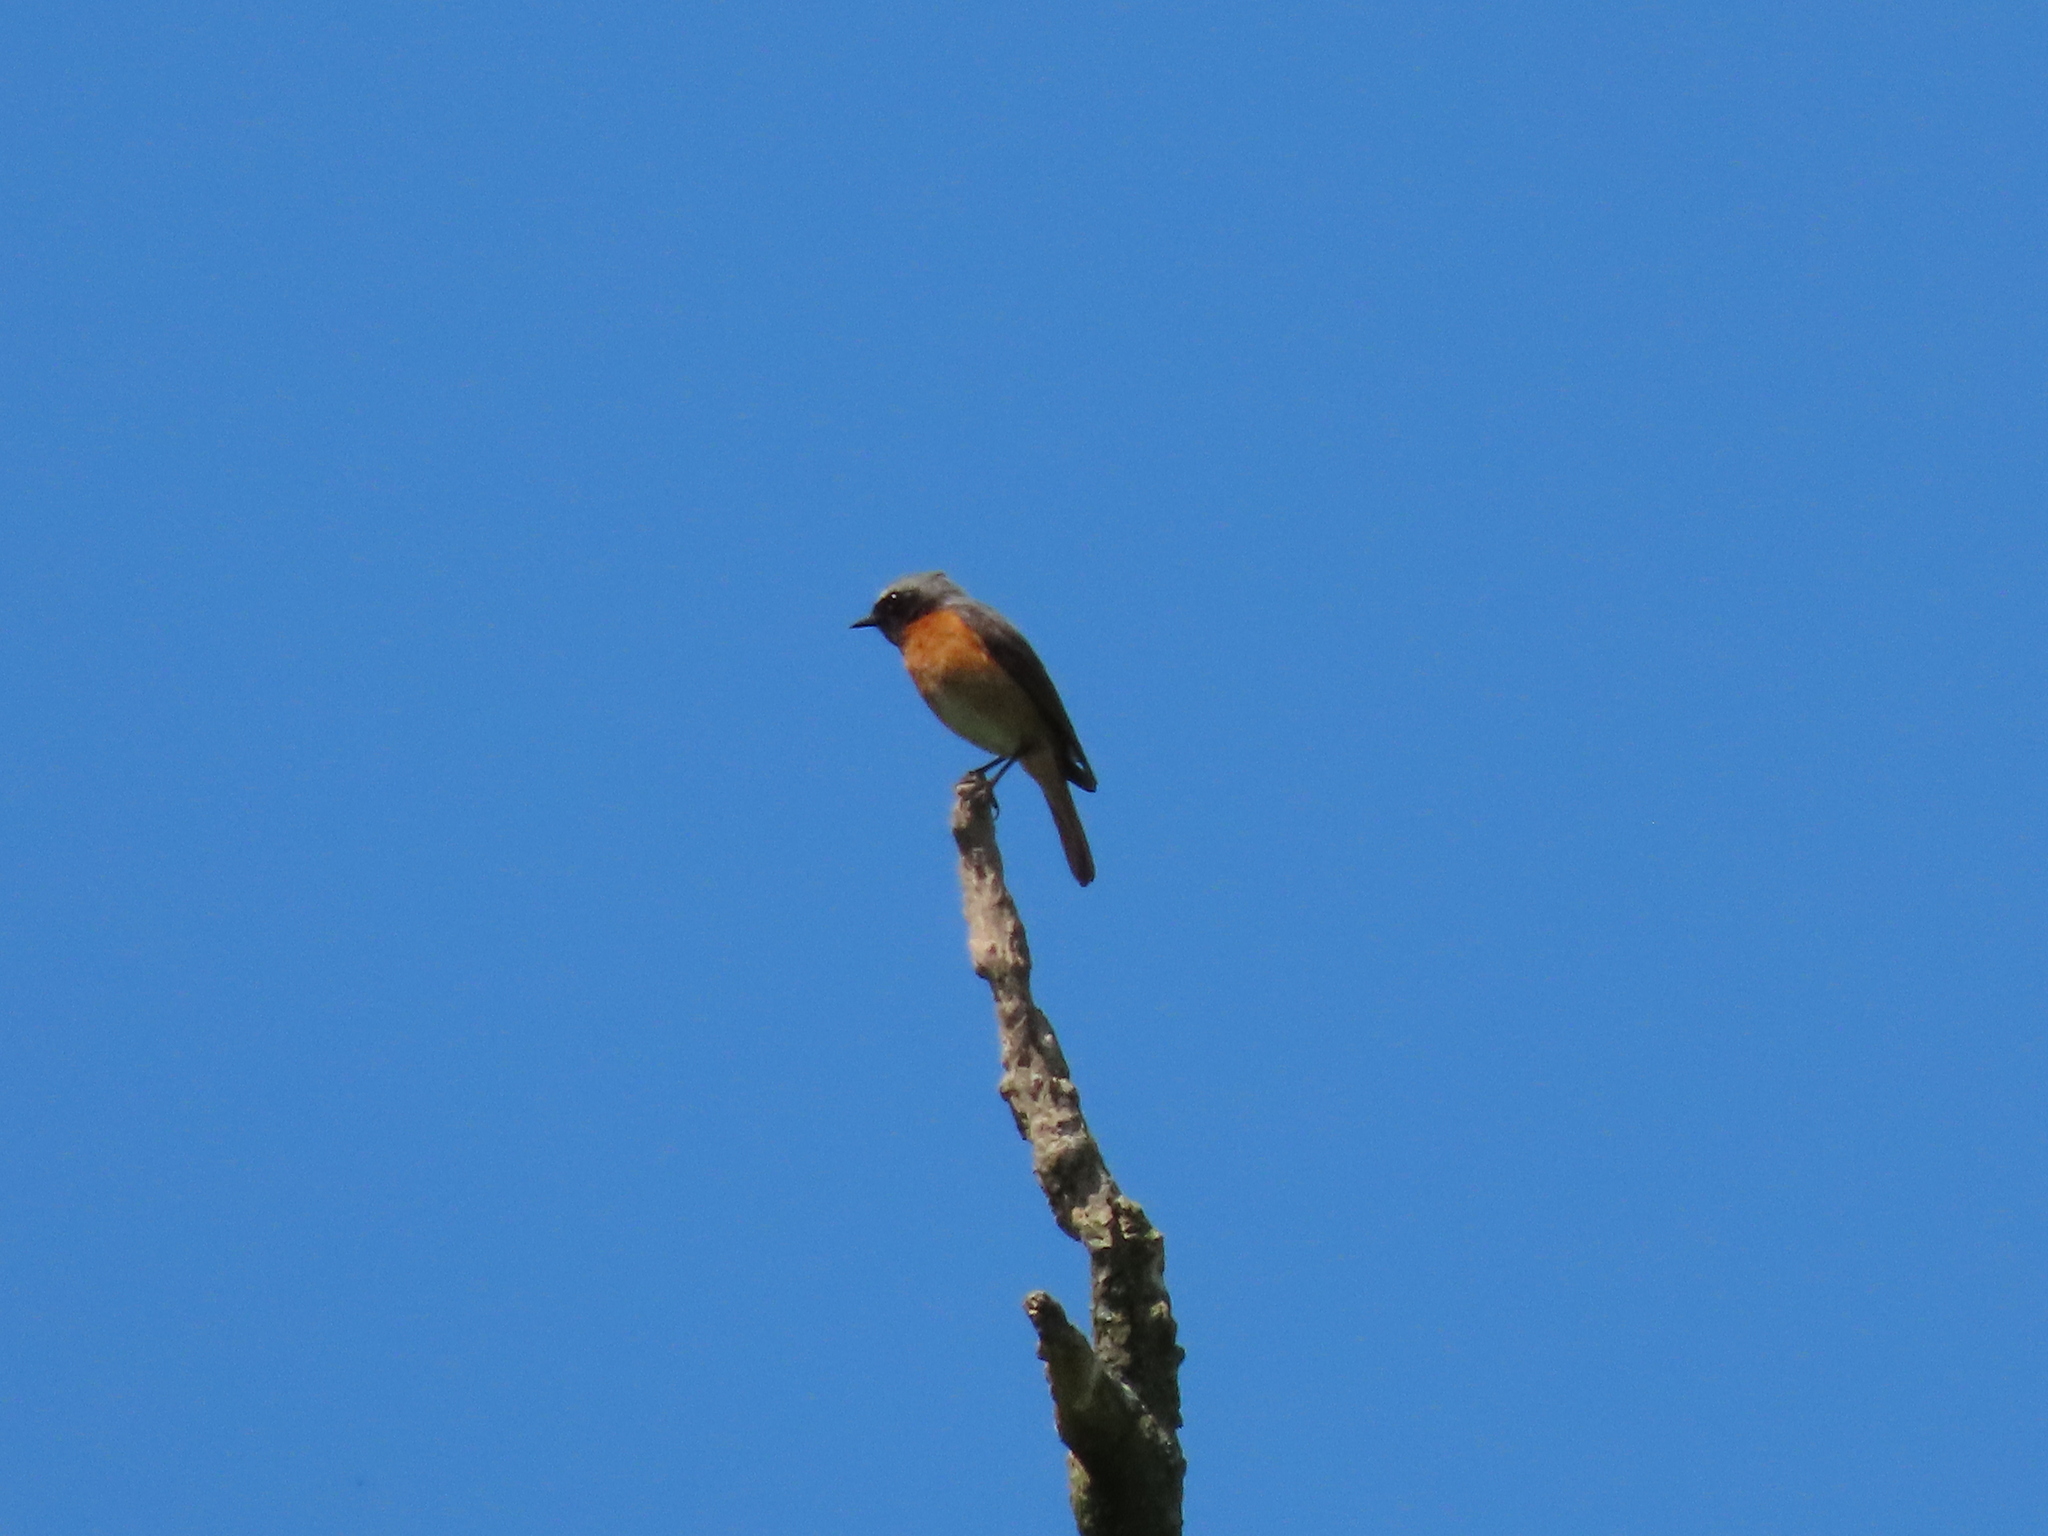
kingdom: Animalia
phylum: Chordata
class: Aves
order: Passeriformes
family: Muscicapidae
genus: Phoenicurus
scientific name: Phoenicurus phoenicurus
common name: Common redstart
